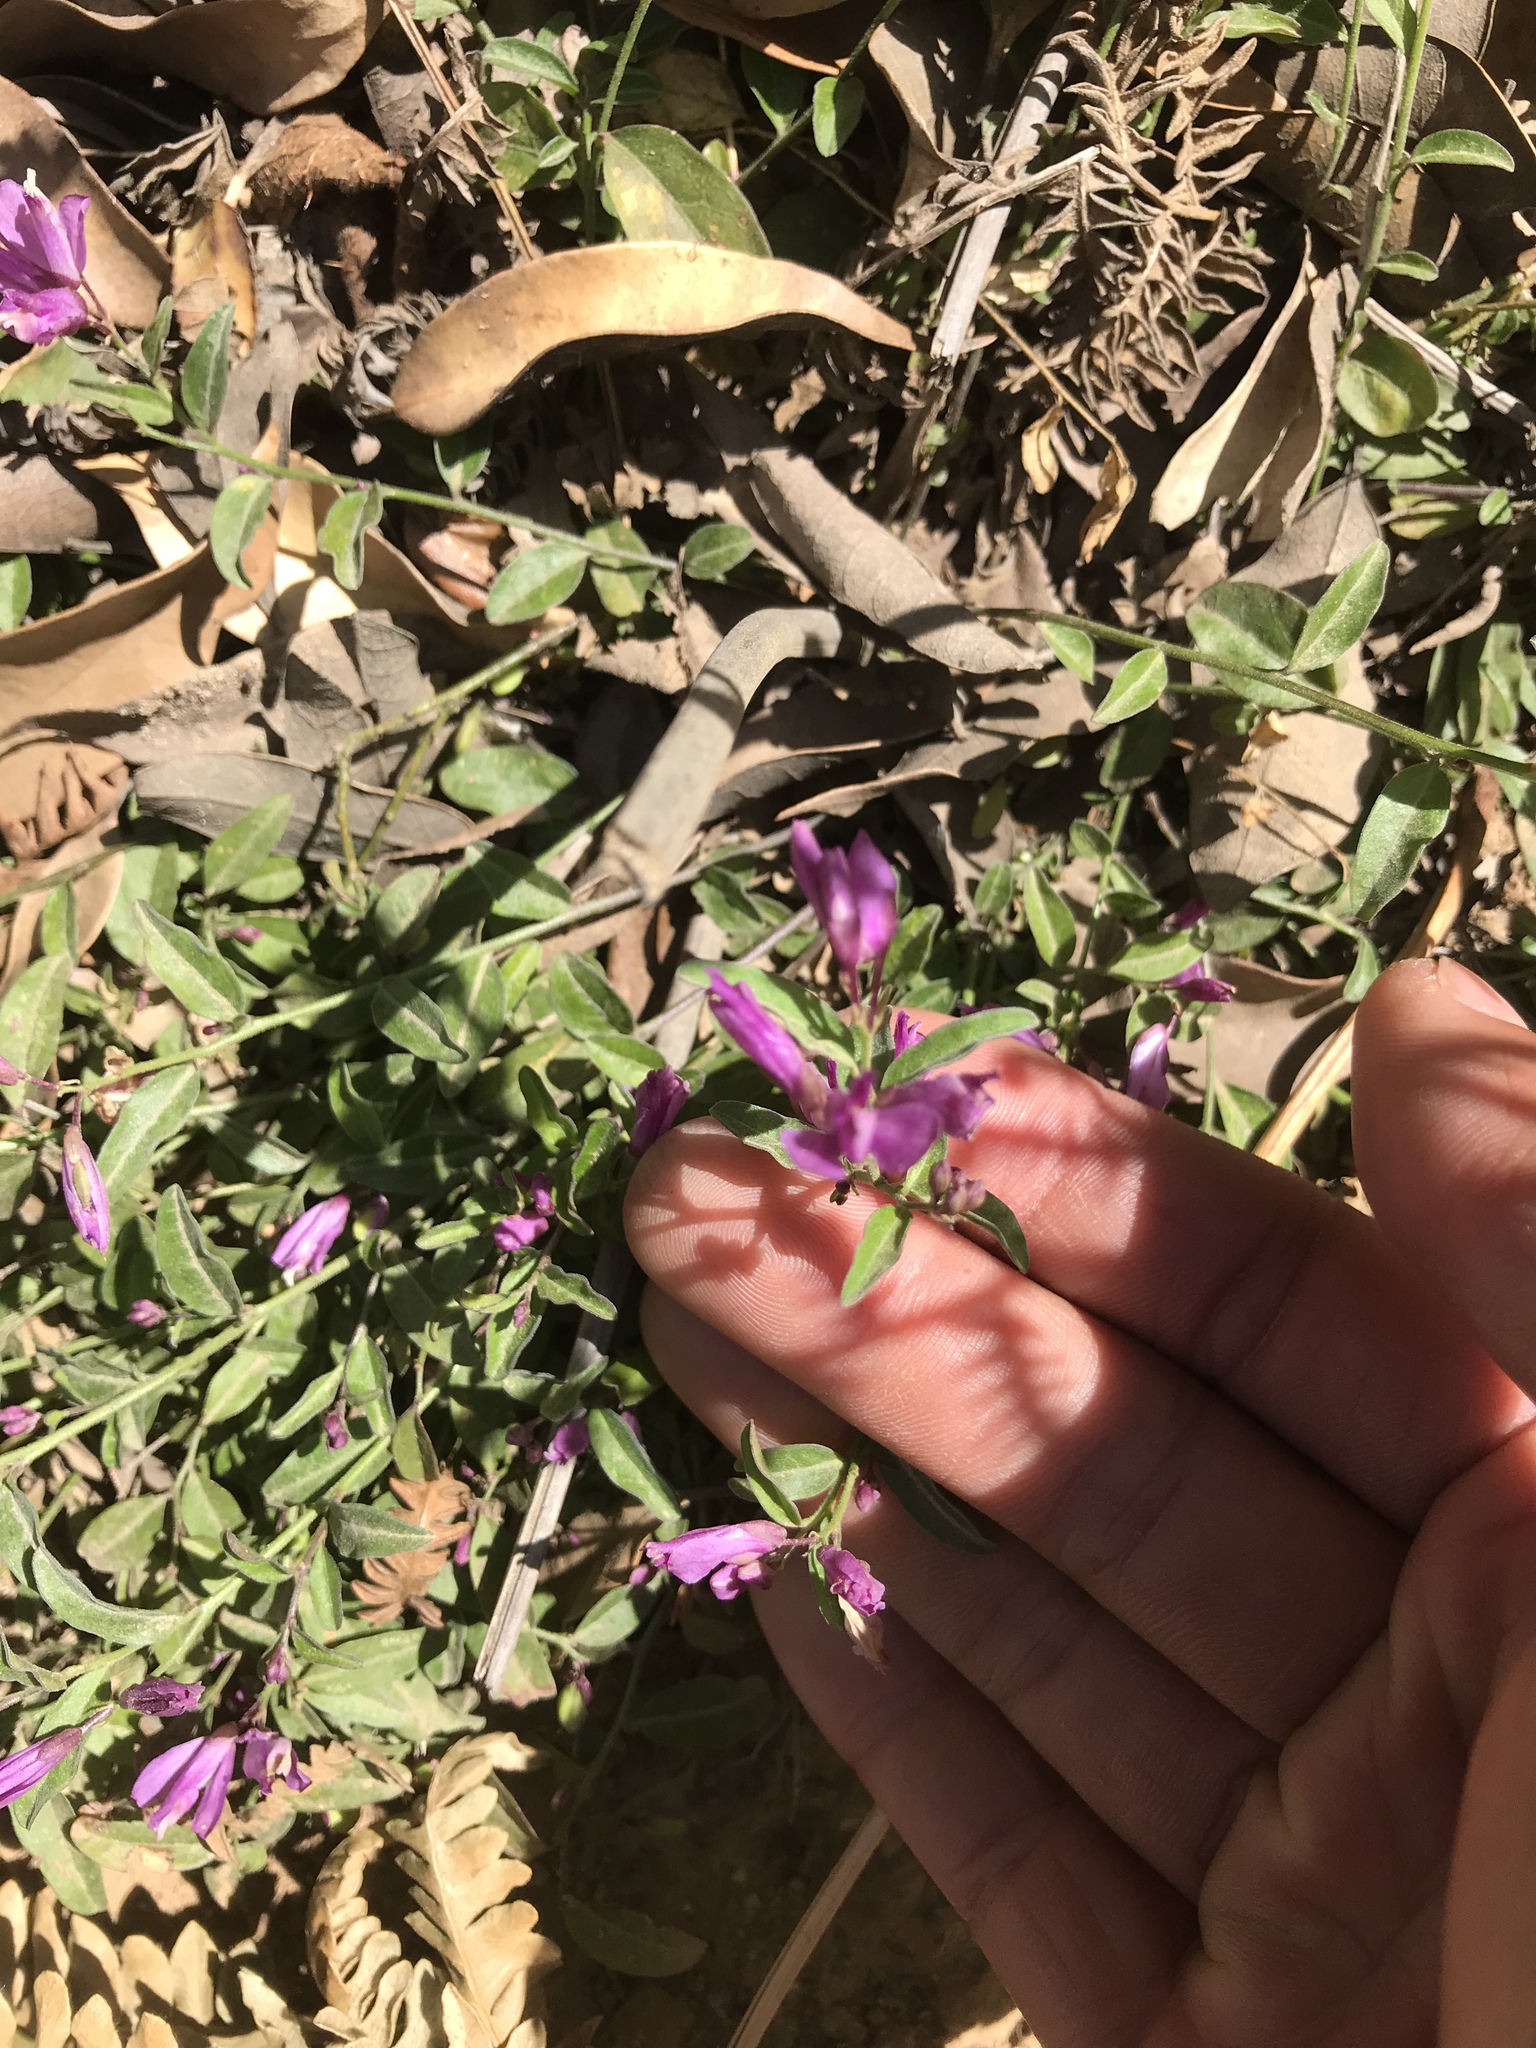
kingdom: Plantae
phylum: Tracheophyta
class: Magnoliopsida
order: Fabales
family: Polygalaceae
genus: Rhinotropis
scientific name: Rhinotropis californica
